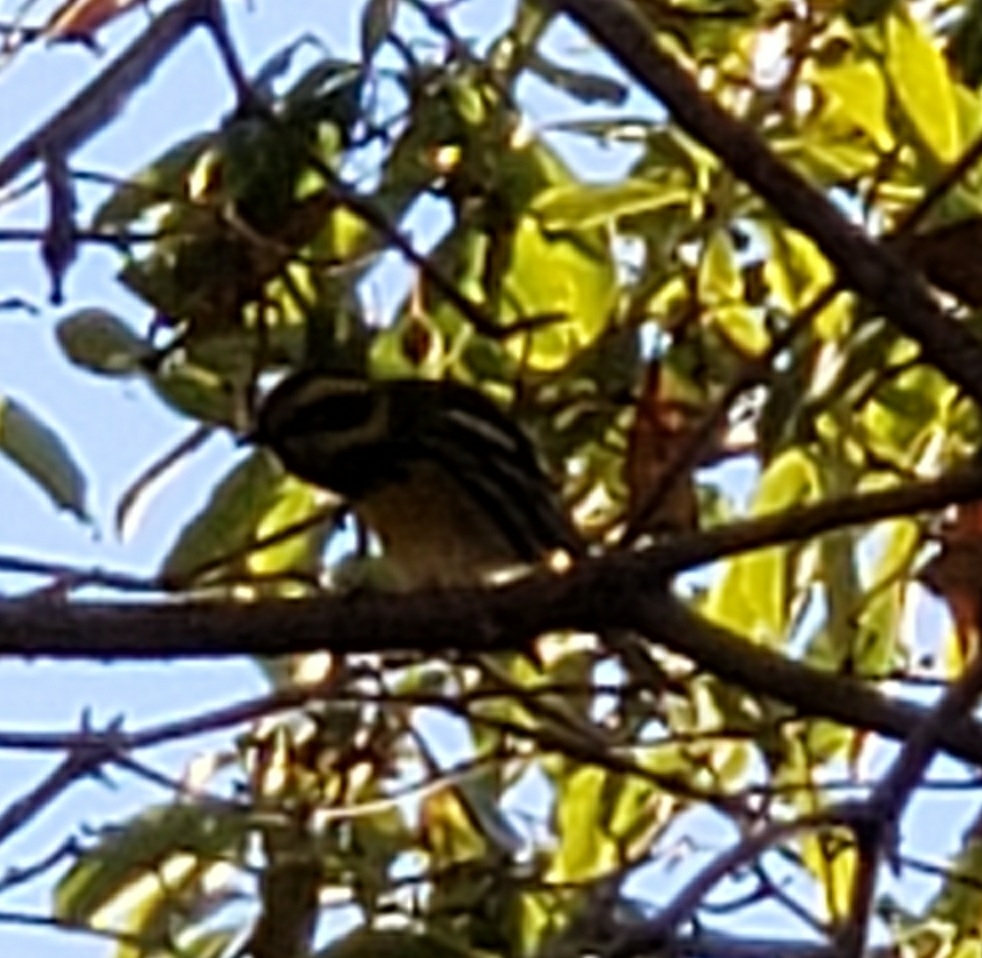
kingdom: Animalia
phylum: Chordata
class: Aves
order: Passeriformes
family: Parulidae
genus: Setophaga
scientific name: Setophaga townsendi
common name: Townsend's warbler
